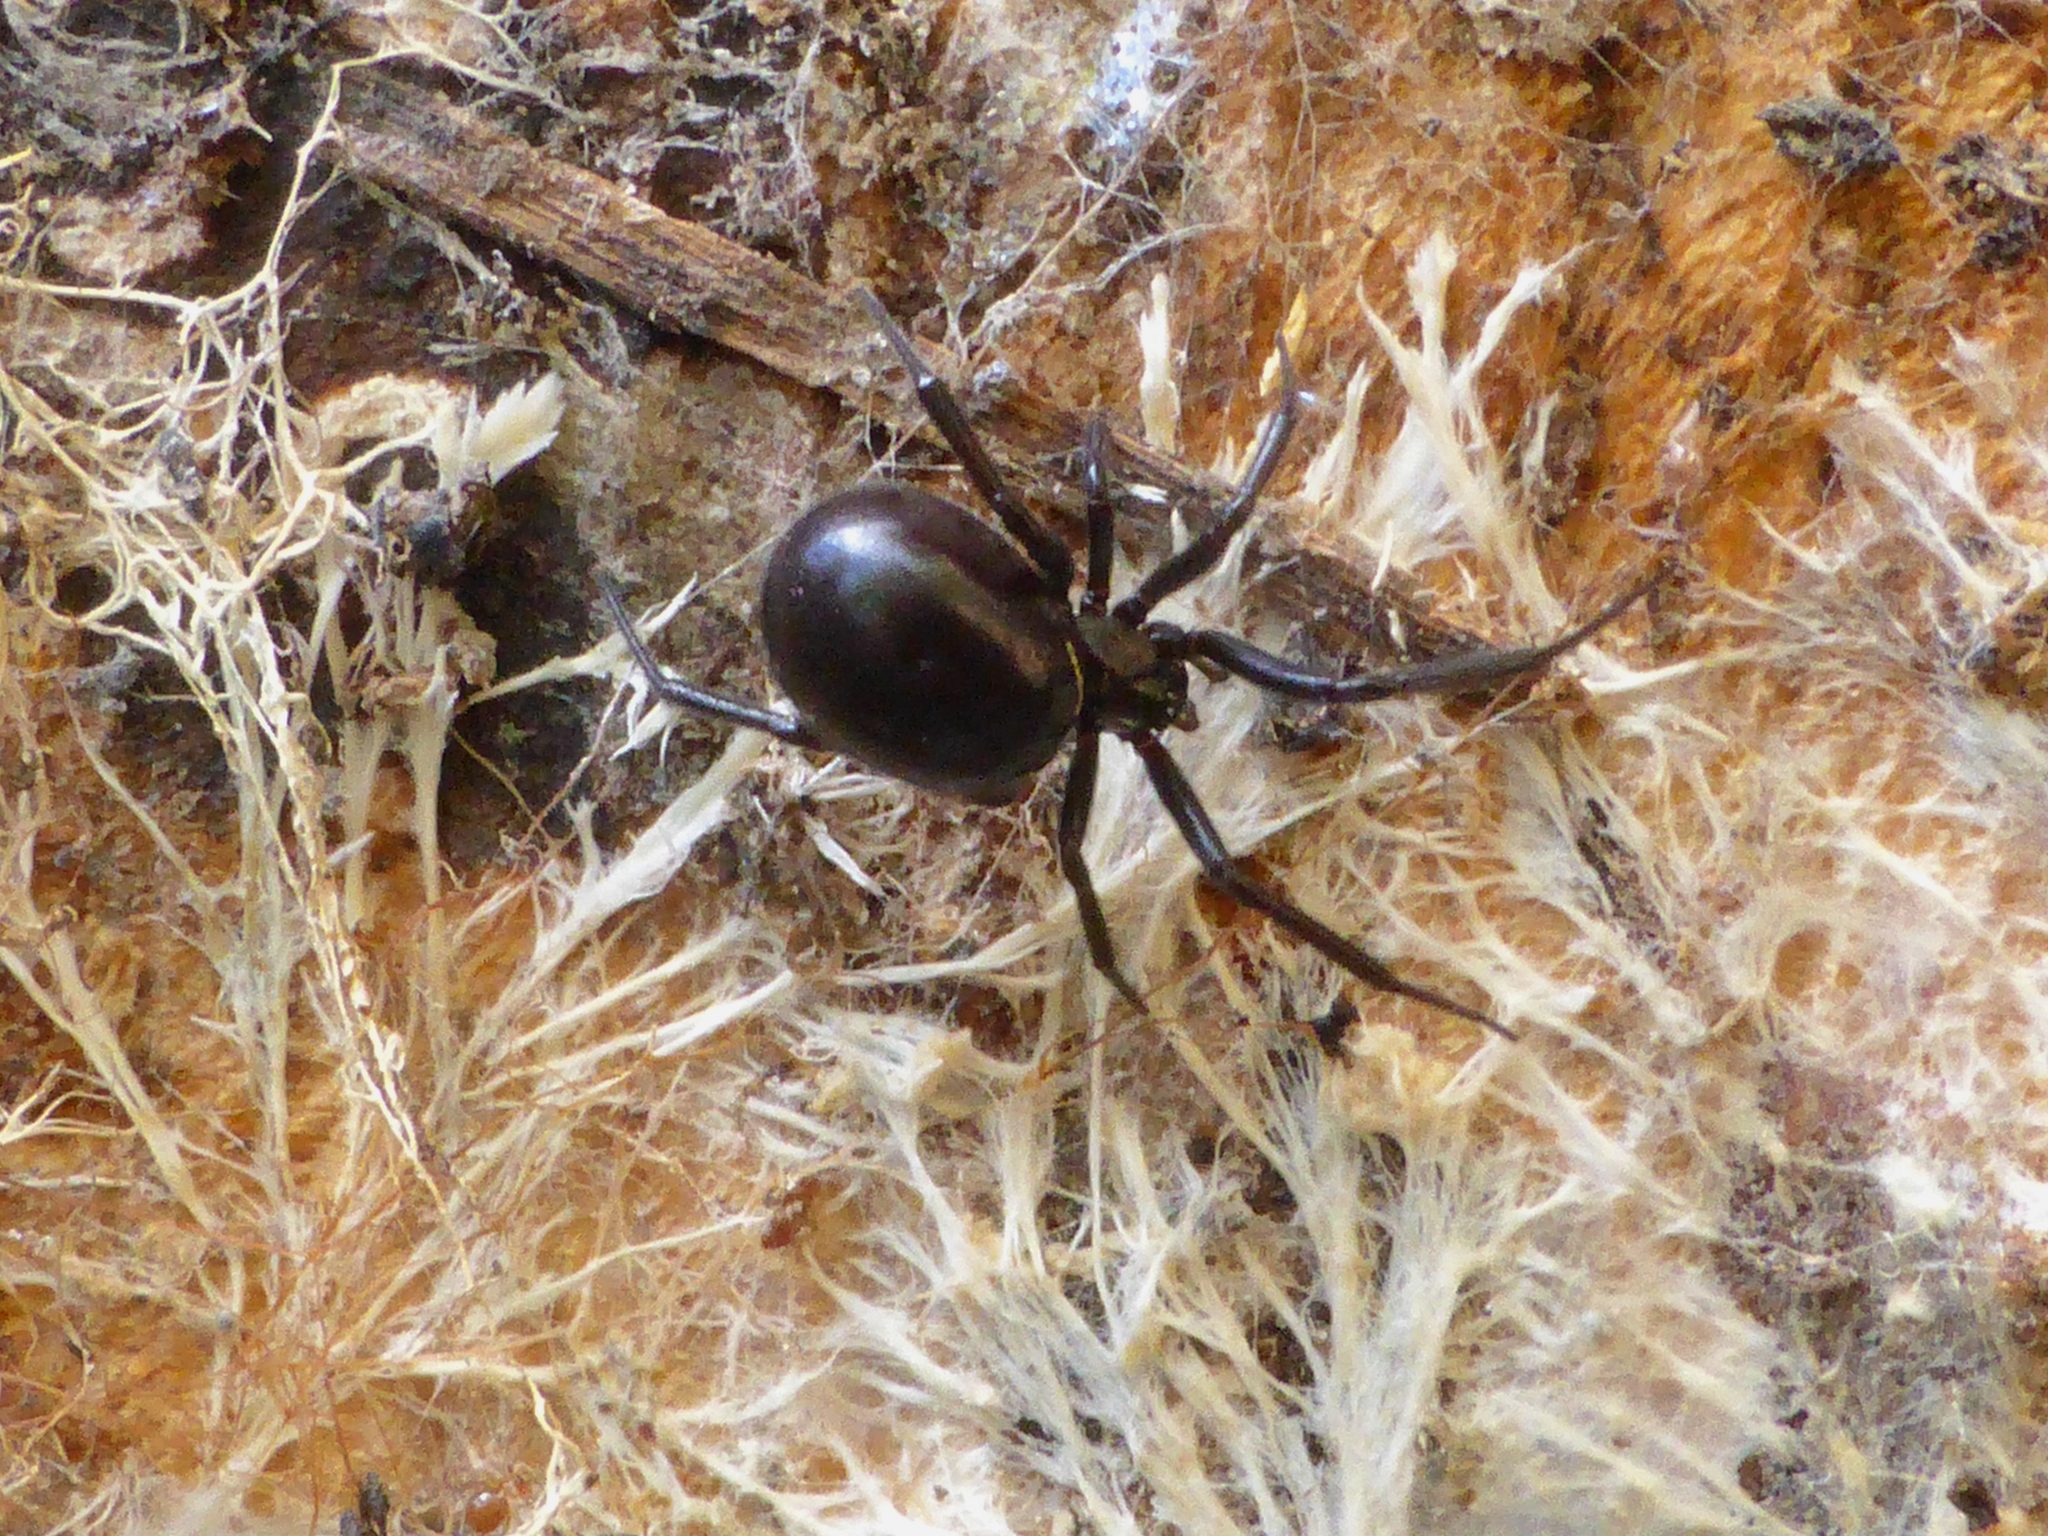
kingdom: Animalia
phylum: Arthropoda
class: Arachnida
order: Araneae
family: Theridiidae
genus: Steatoda
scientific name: Steatoda capensis
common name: Cobweb weaver
